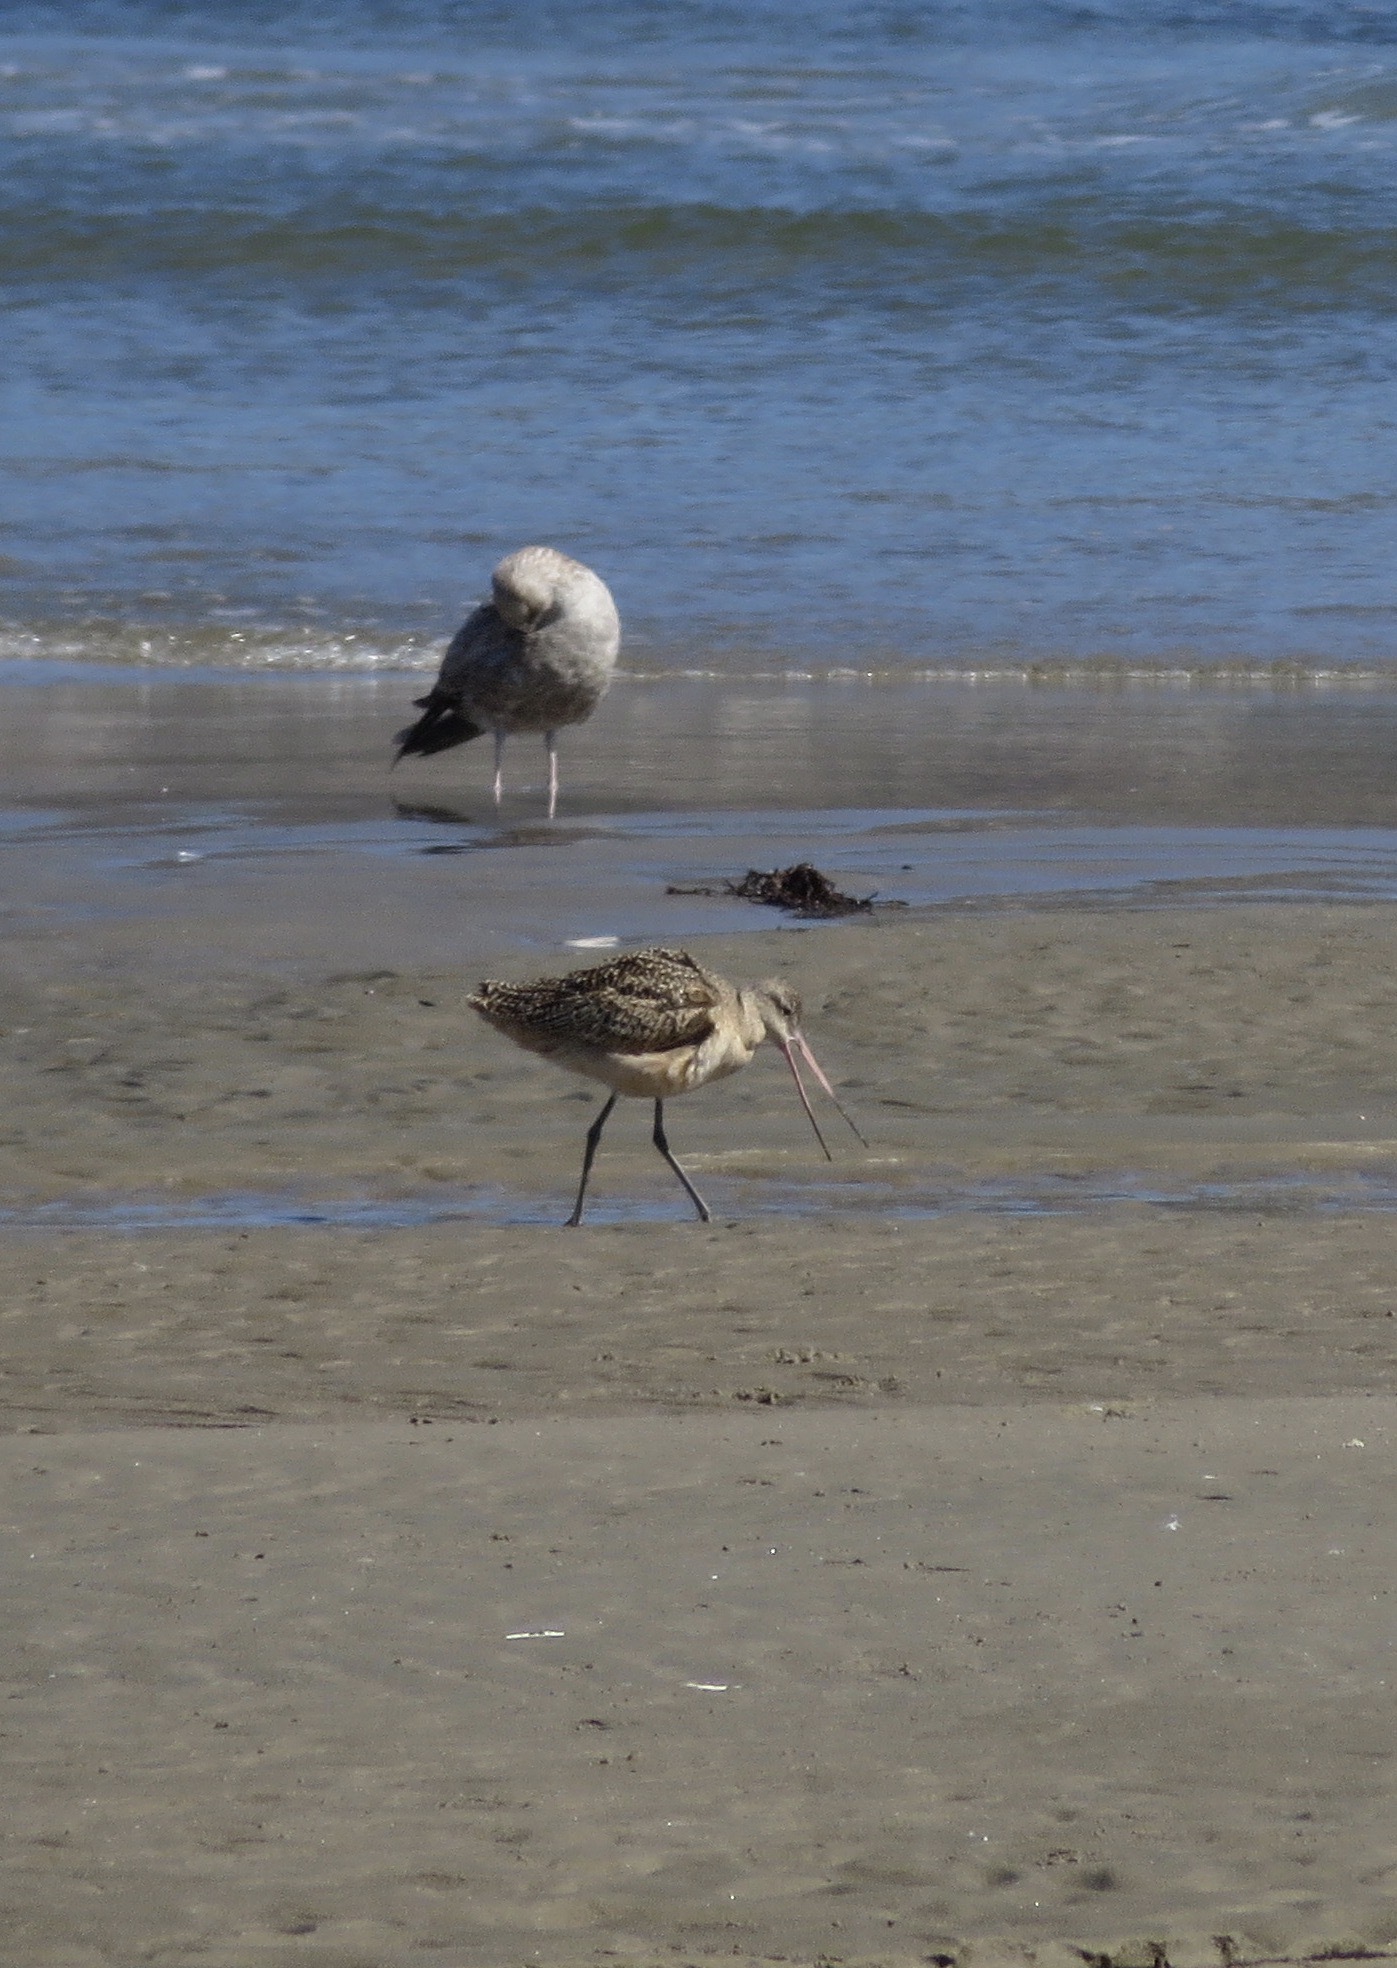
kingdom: Animalia
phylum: Chordata
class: Aves
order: Charadriiformes
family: Scolopacidae
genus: Limosa
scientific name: Limosa fedoa
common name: Marbled godwit
